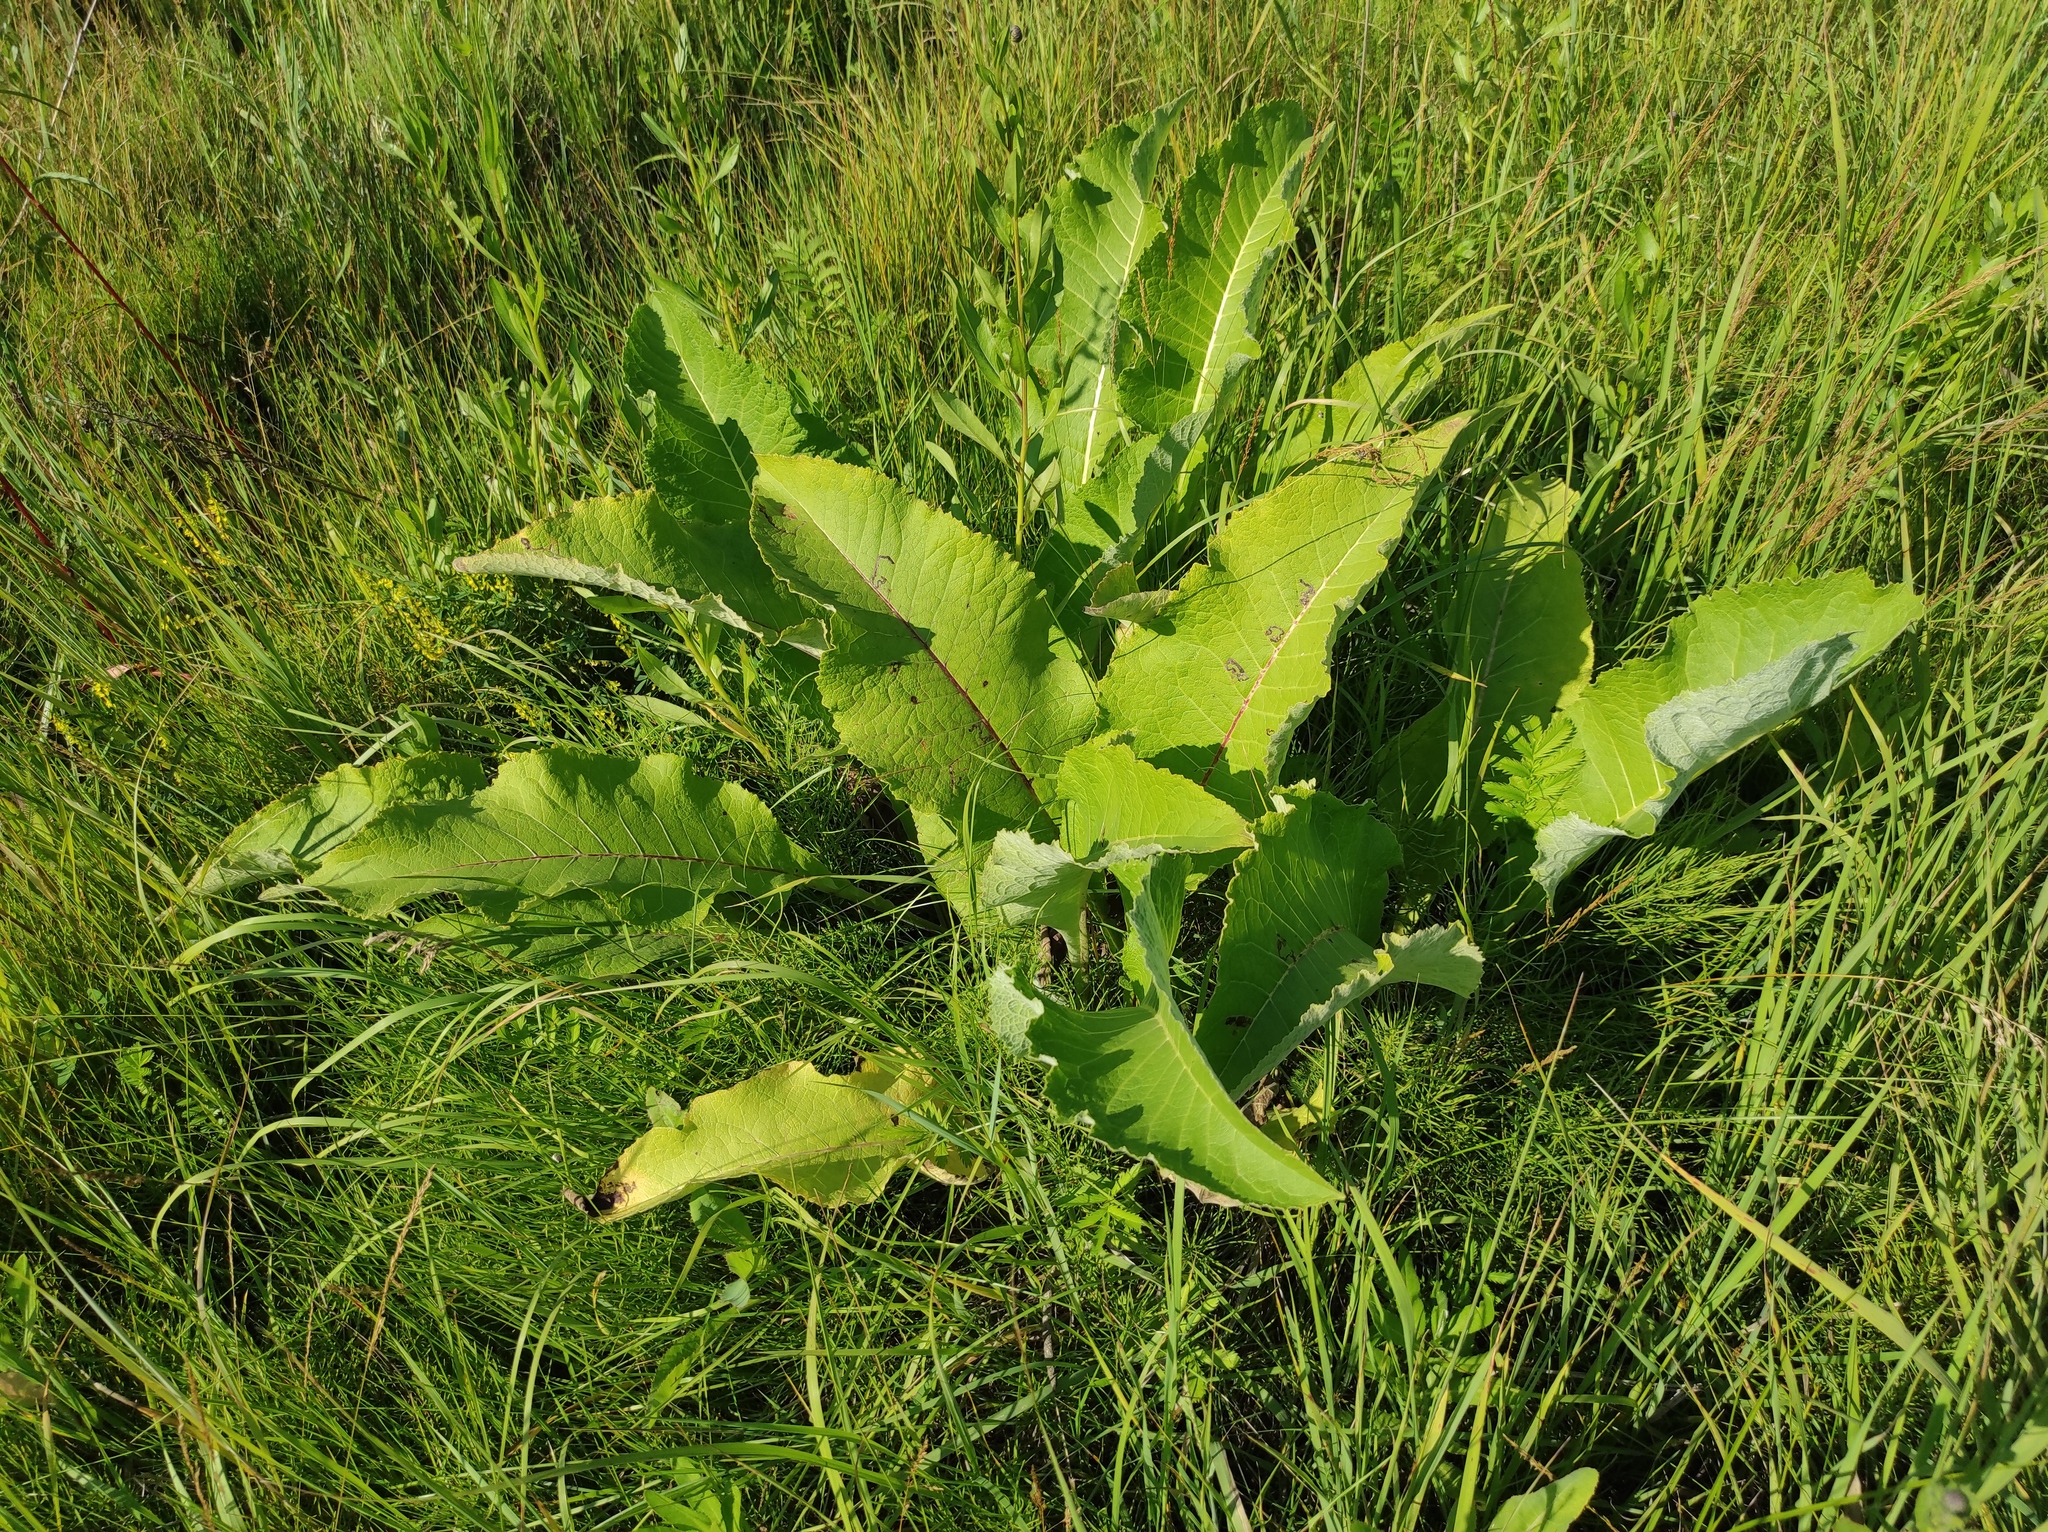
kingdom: Plantae
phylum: Tracheophyta
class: Magnoliopsida
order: Asterales
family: Asteraceae
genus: Inula
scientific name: Inula helenium
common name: Elecampane
